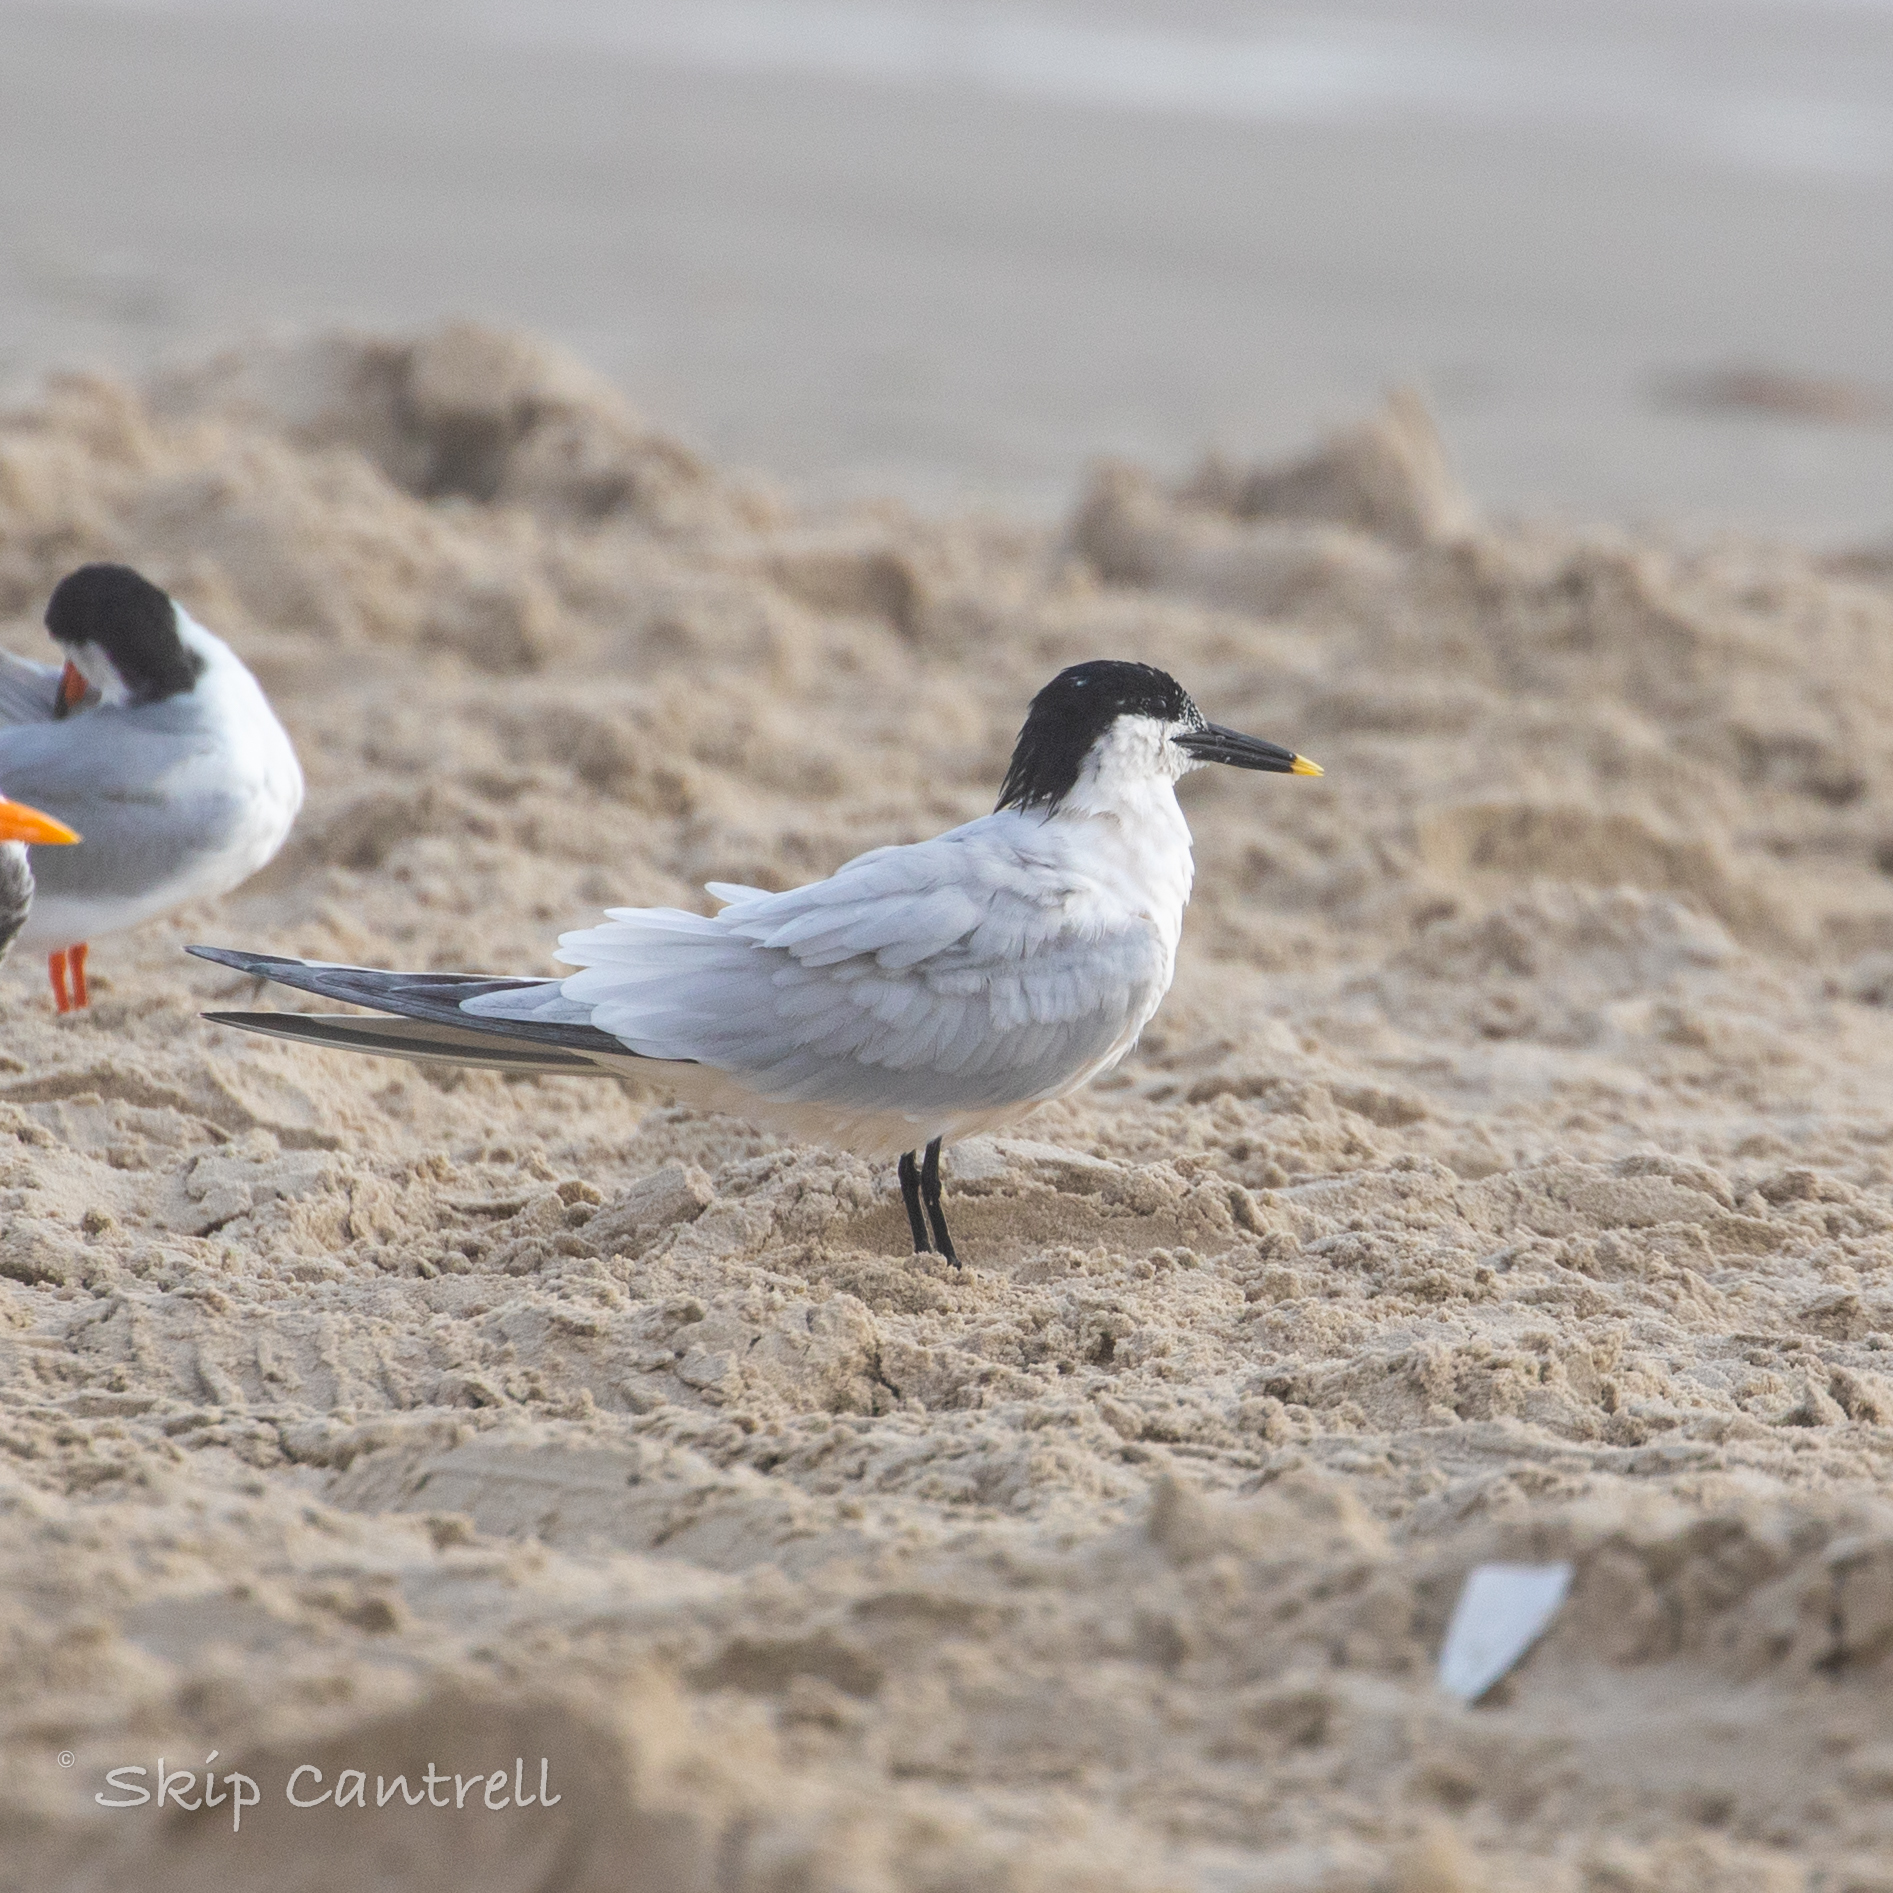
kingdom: Animalia
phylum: Chordata
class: Aves
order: Charadriiformes
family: Laridae
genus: Thalasseus
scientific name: Thalasseus sandvicensis
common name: Sandwich tern
